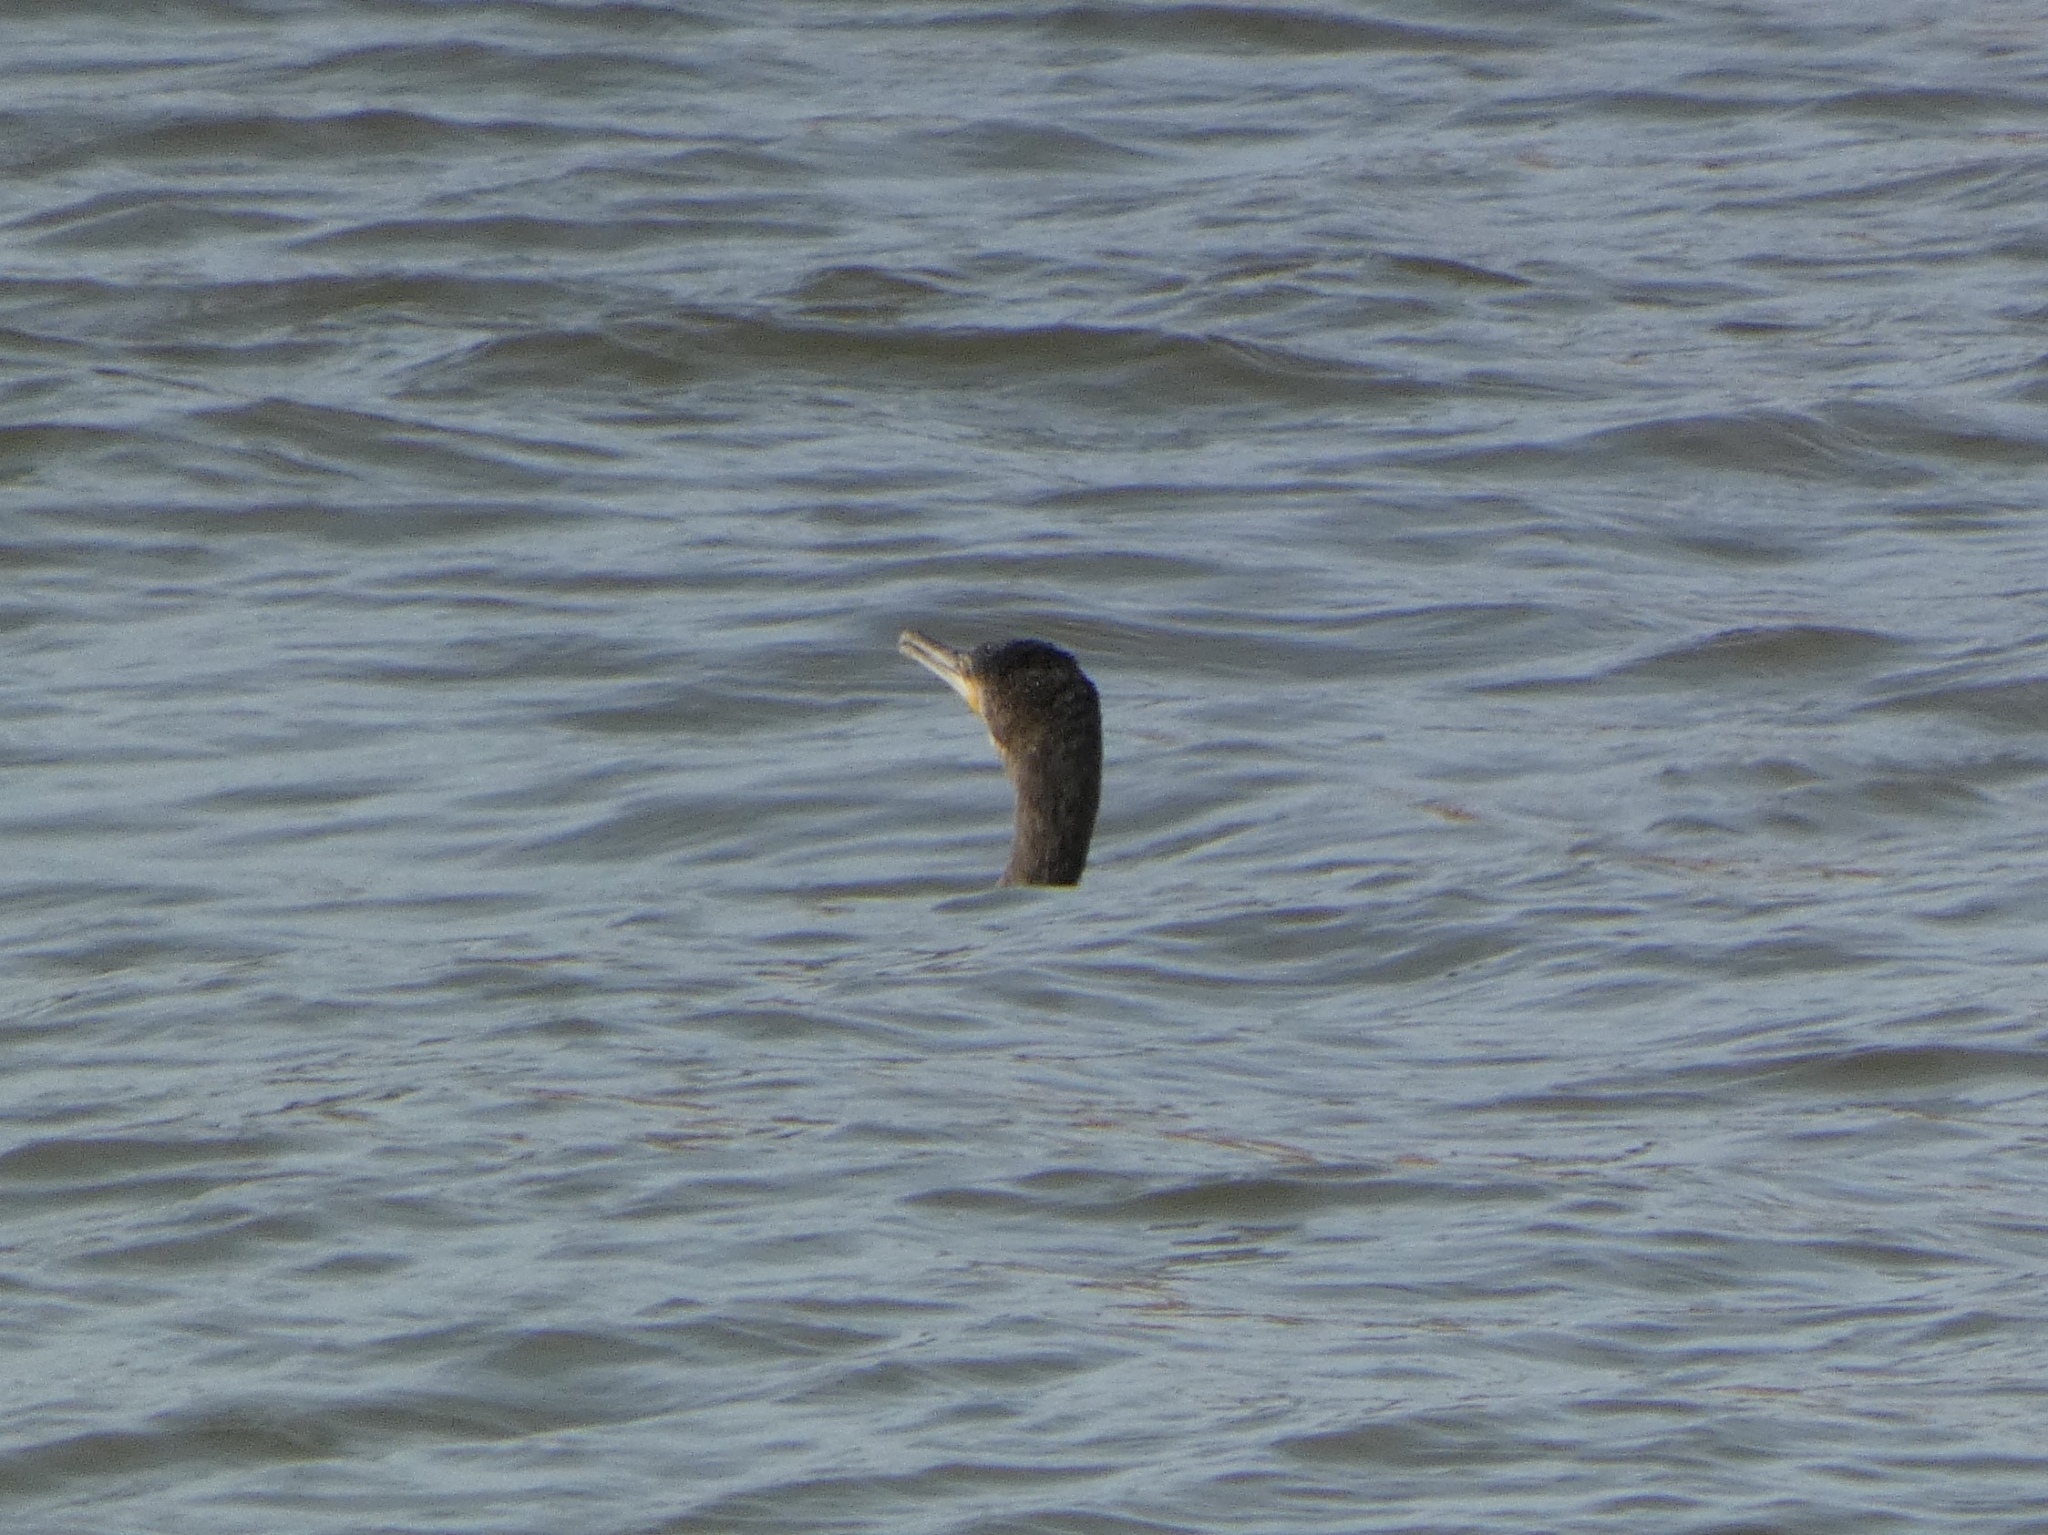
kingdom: Animalia
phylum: Chordata
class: Aves
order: Suliformes
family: Phalacrocoracidae
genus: Phalacrocorax
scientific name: Phalacrocorax carbo
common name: Great cormorant
